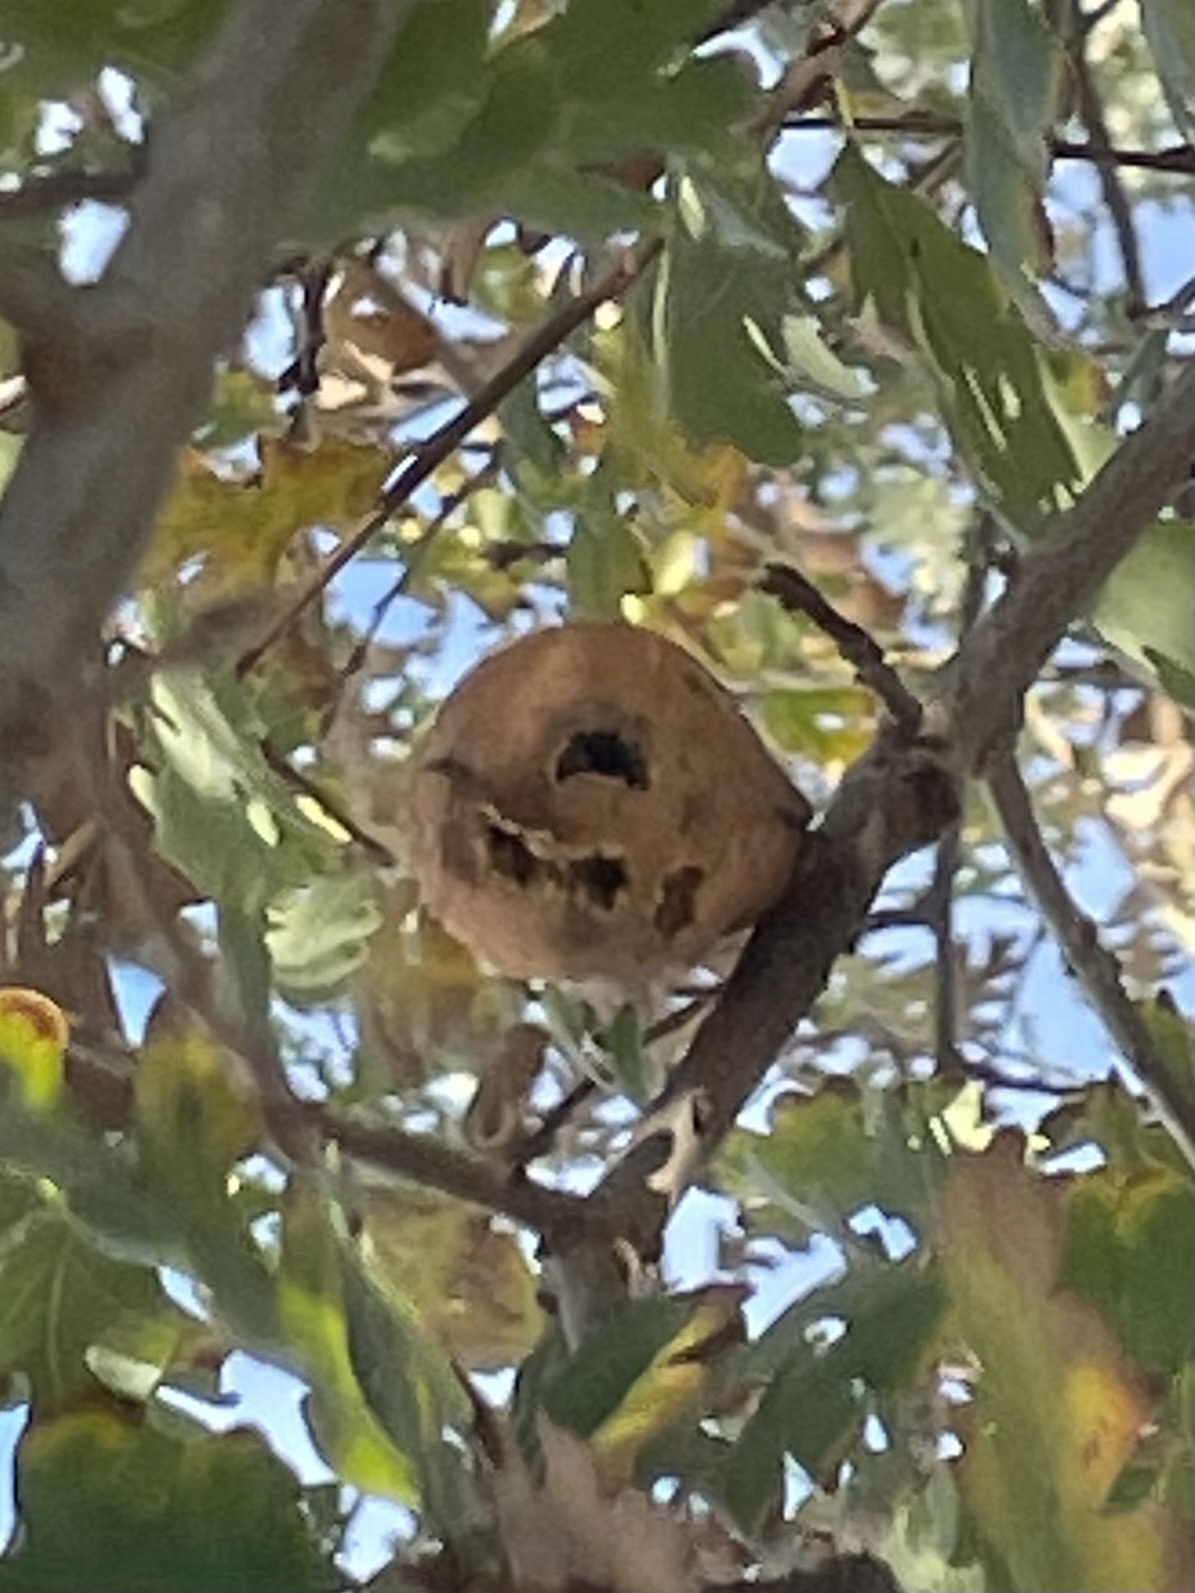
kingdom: Animalia
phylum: Arthropoda
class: Insecta
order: Hymenoptera
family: Cynipidae
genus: Andricus
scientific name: Andricus quercuscalifornicus
